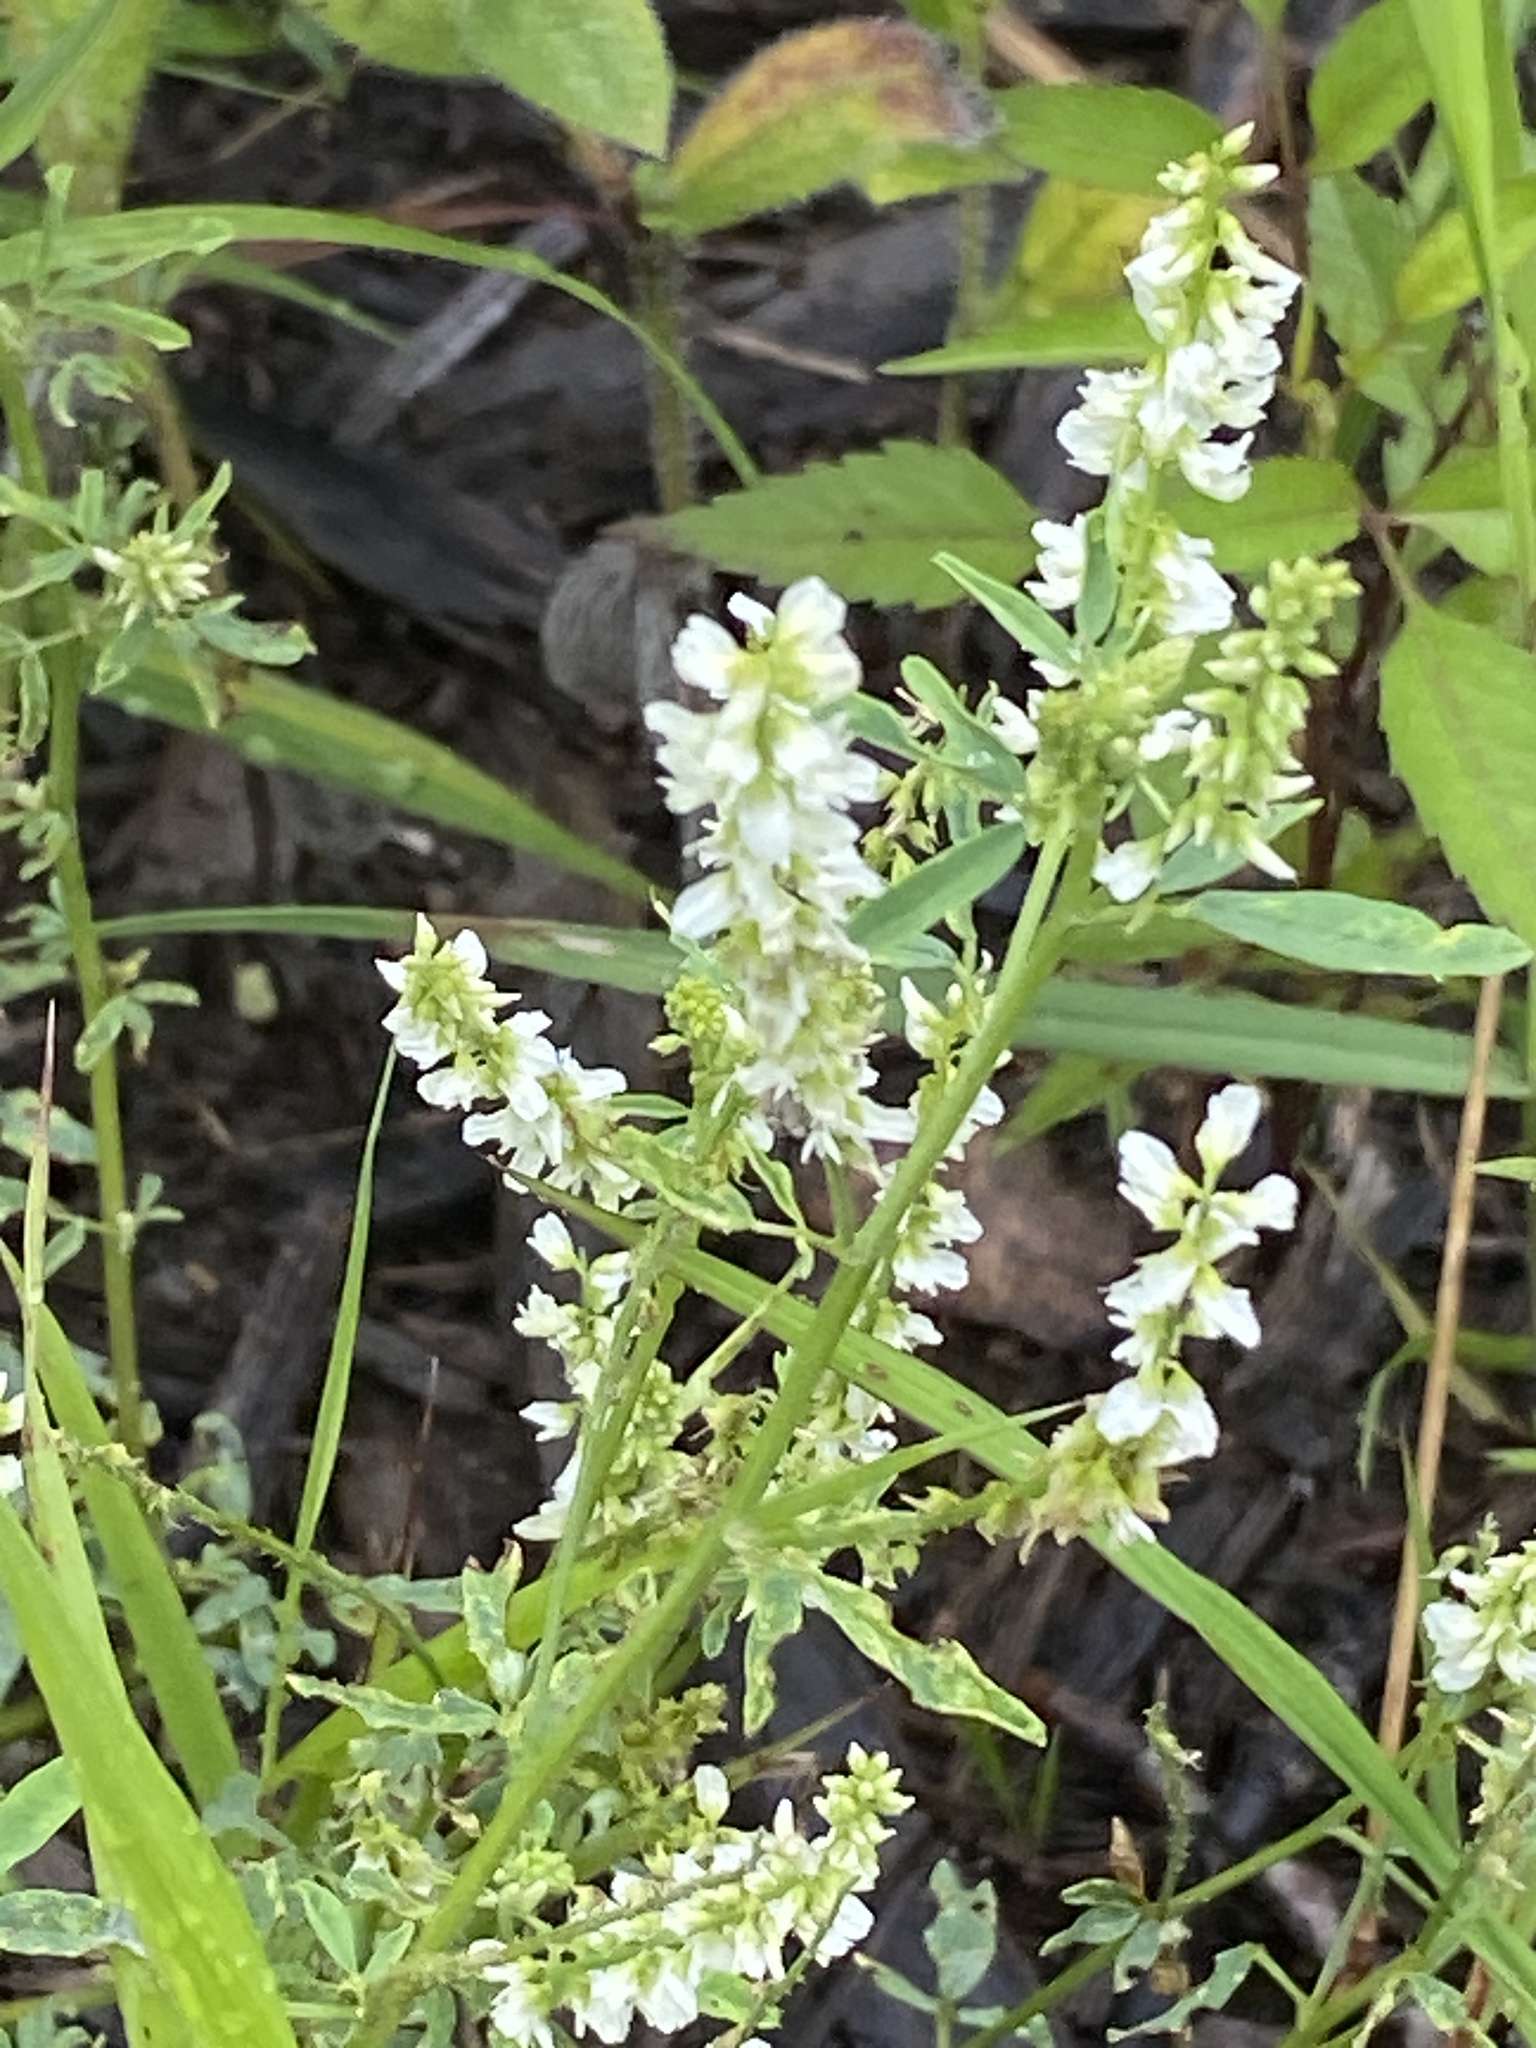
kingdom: Plantae
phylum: Tracheophyta
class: Magnoliopsida
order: Fabales
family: Fabaceae
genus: Melilotus
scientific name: Melilotus albus
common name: White melilot
